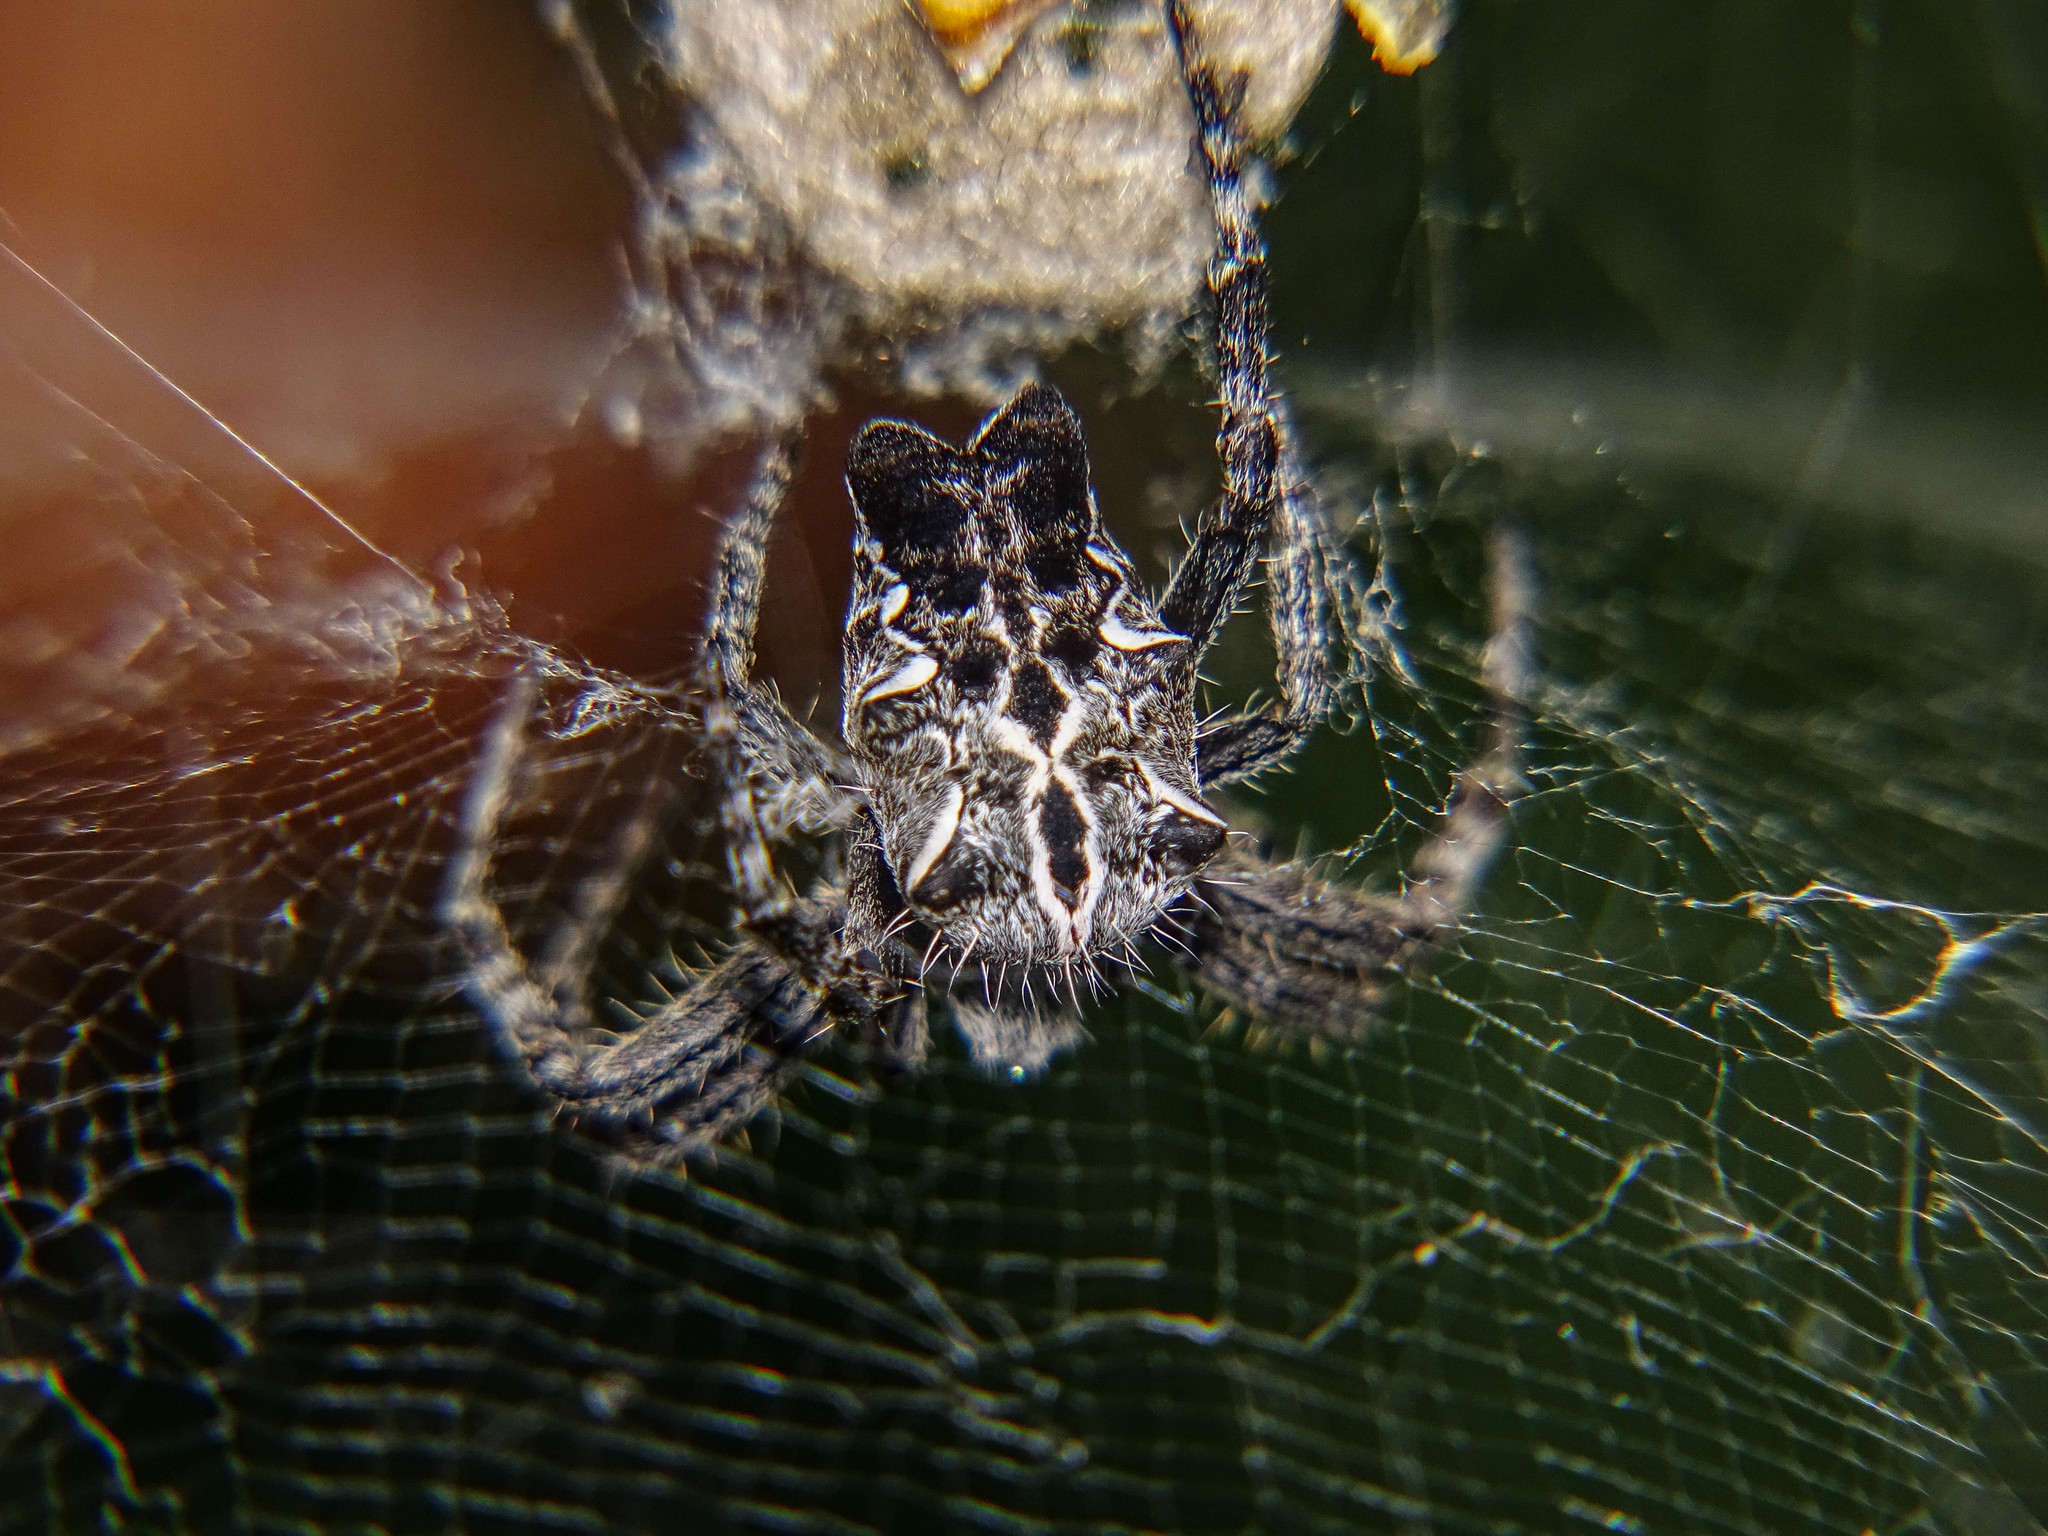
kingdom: Animalia
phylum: Arthropoda
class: Arachnida
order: Araneae
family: Araneidae
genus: Cyrtophora
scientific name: Cyrtophora citricola
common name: Orb weavers
